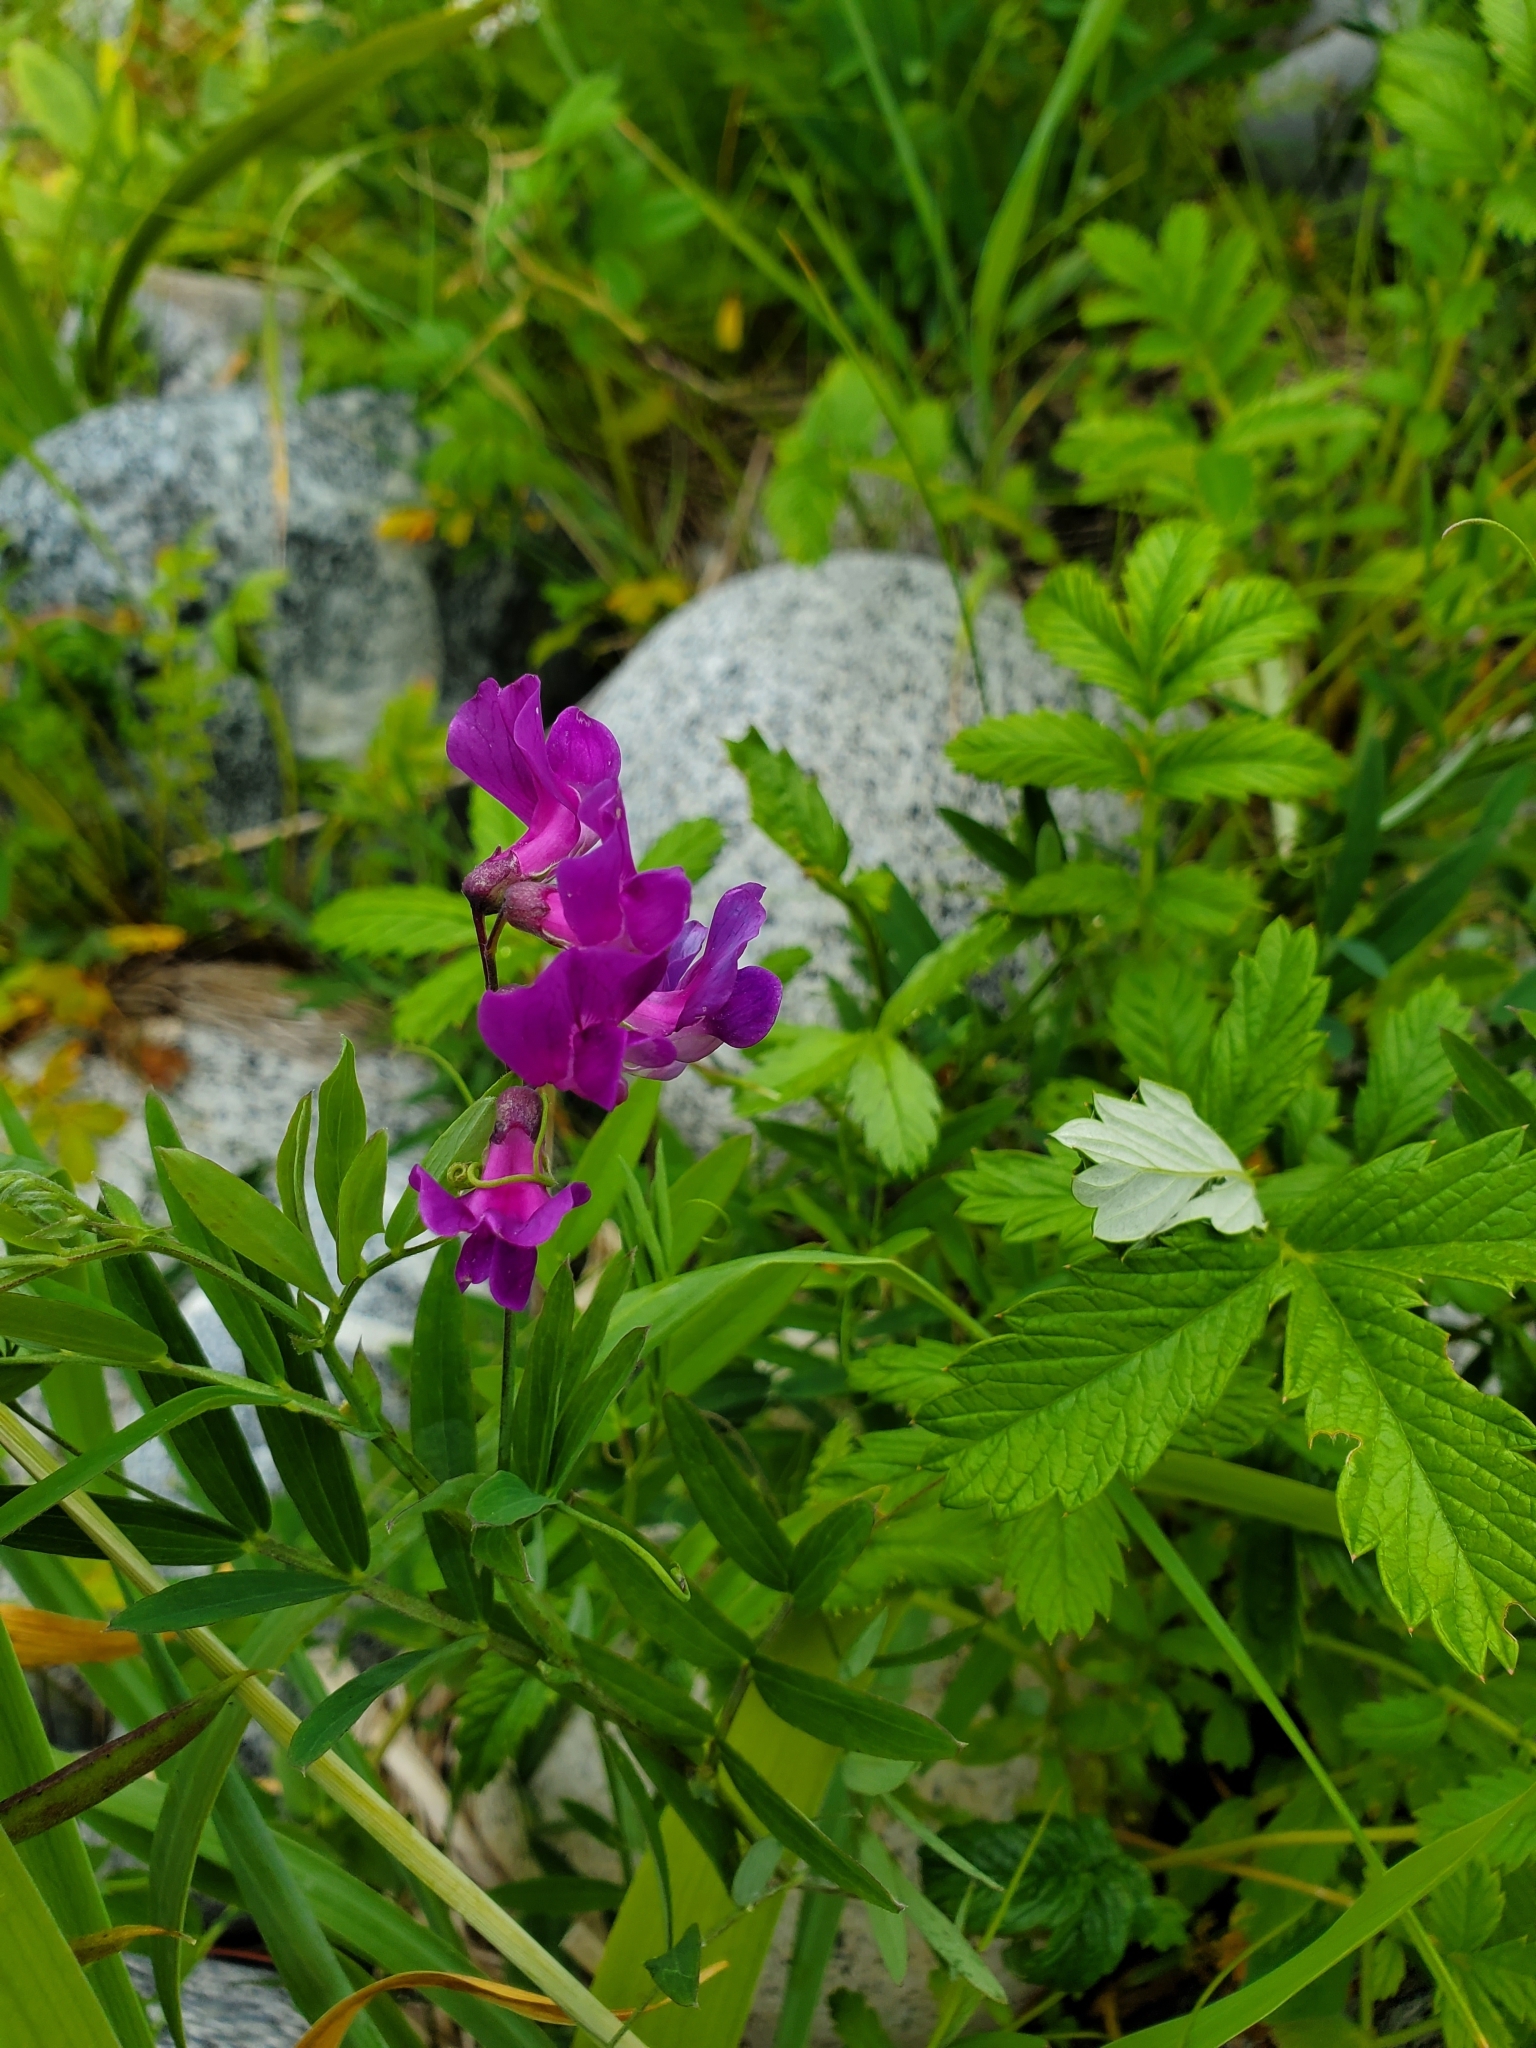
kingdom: Plantae
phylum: Tracheophyta
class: Magnoliopsida
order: Fabales
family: Fabaceae
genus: Lathyrus
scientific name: Lathyrus japonicus
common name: Sea pea
